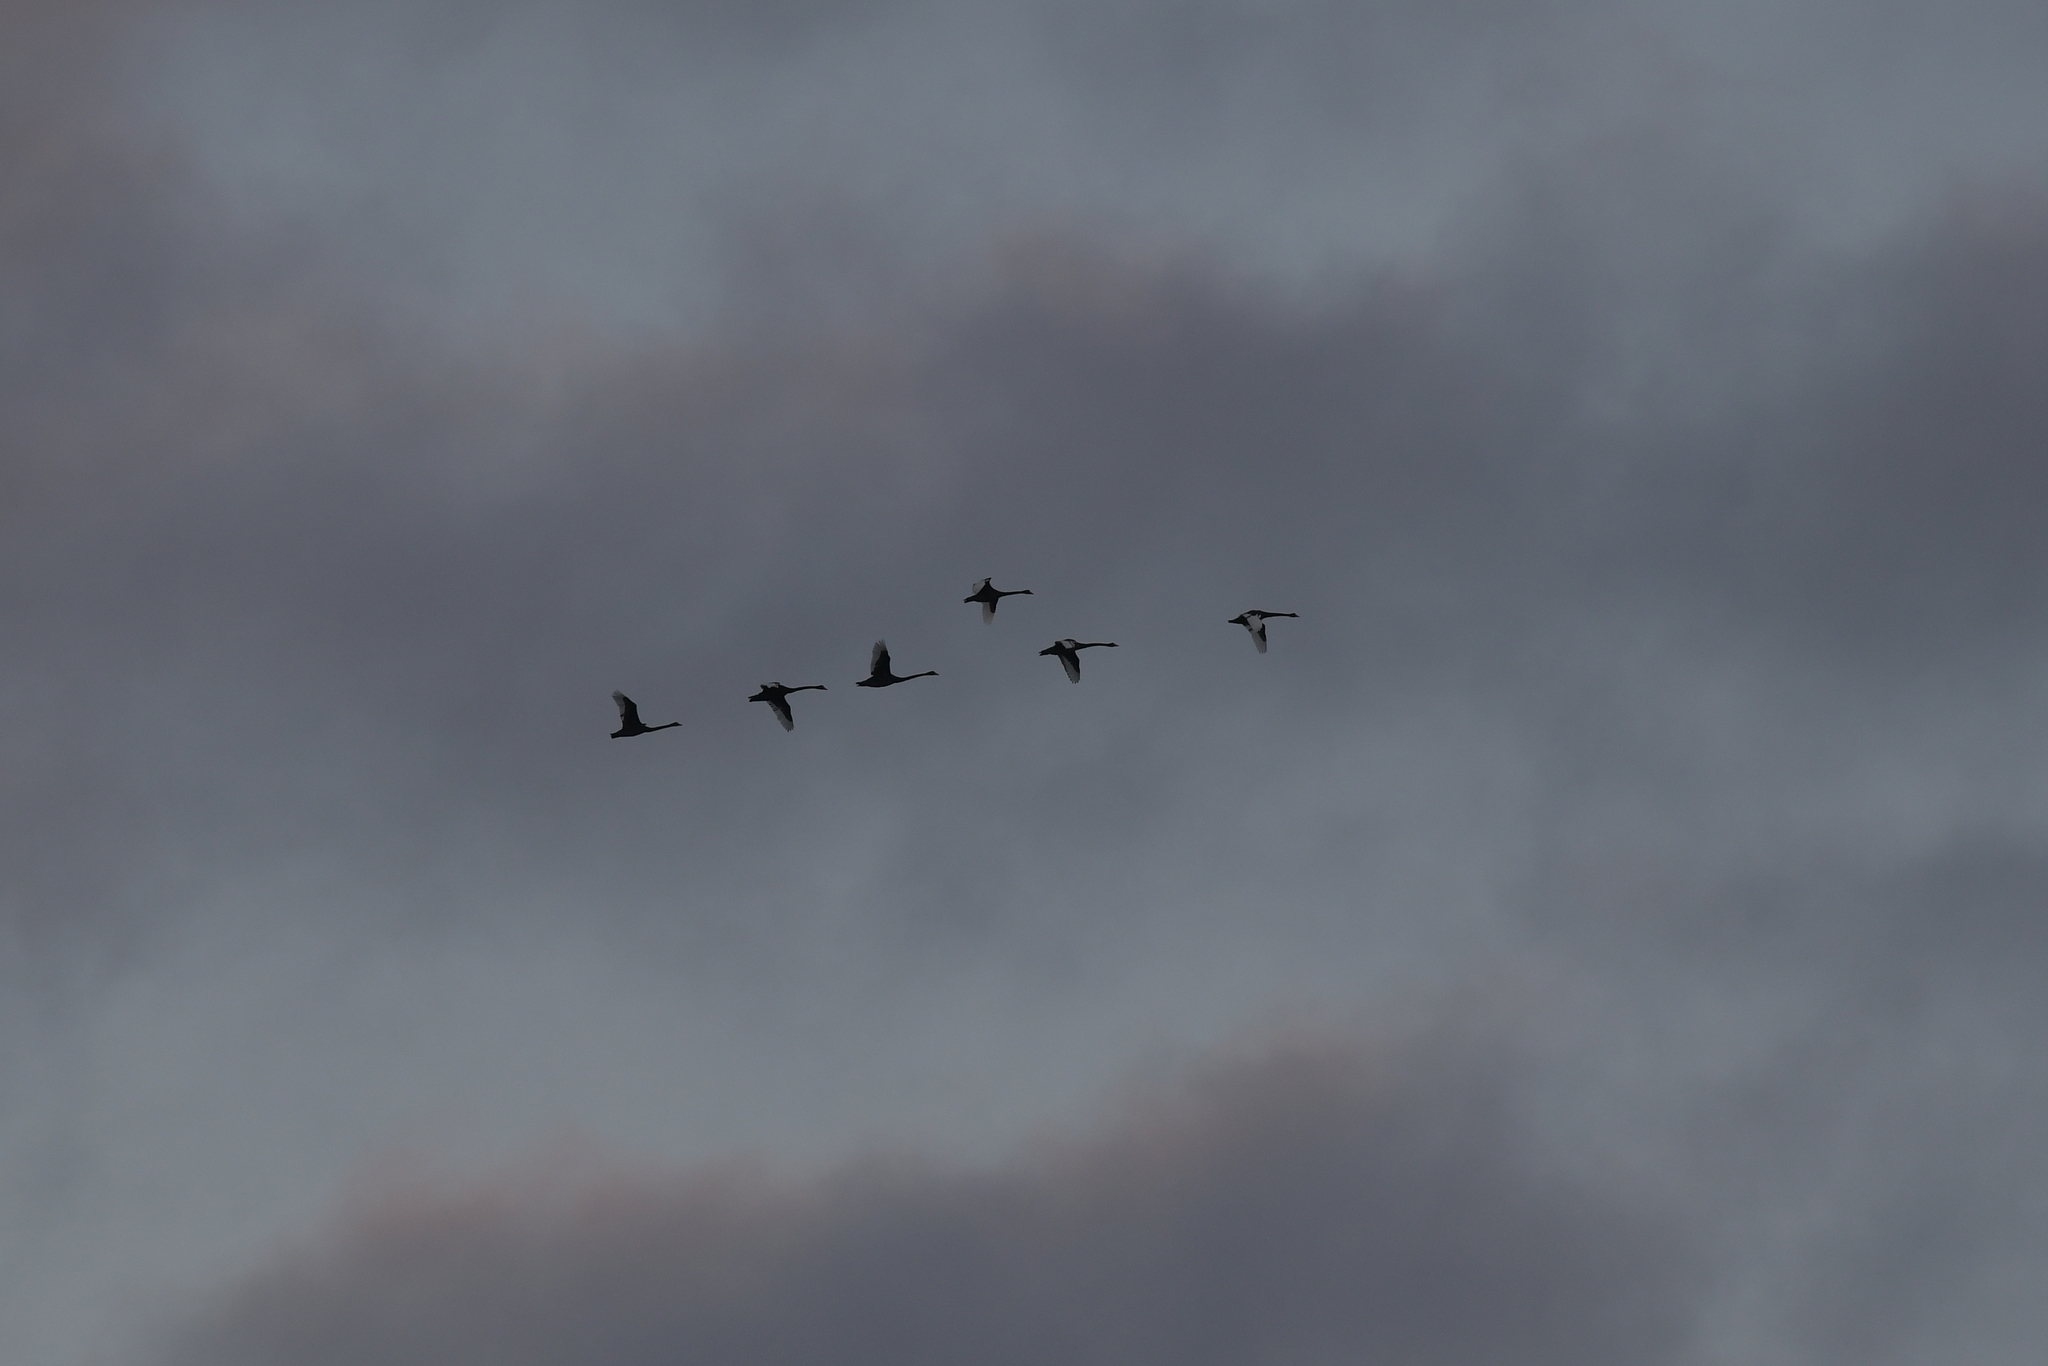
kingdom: Animalia
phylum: Chordata
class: Aves
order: Anseriformes
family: Anatidae
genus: Cygnus
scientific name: Cygnus atratus
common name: Black swan
